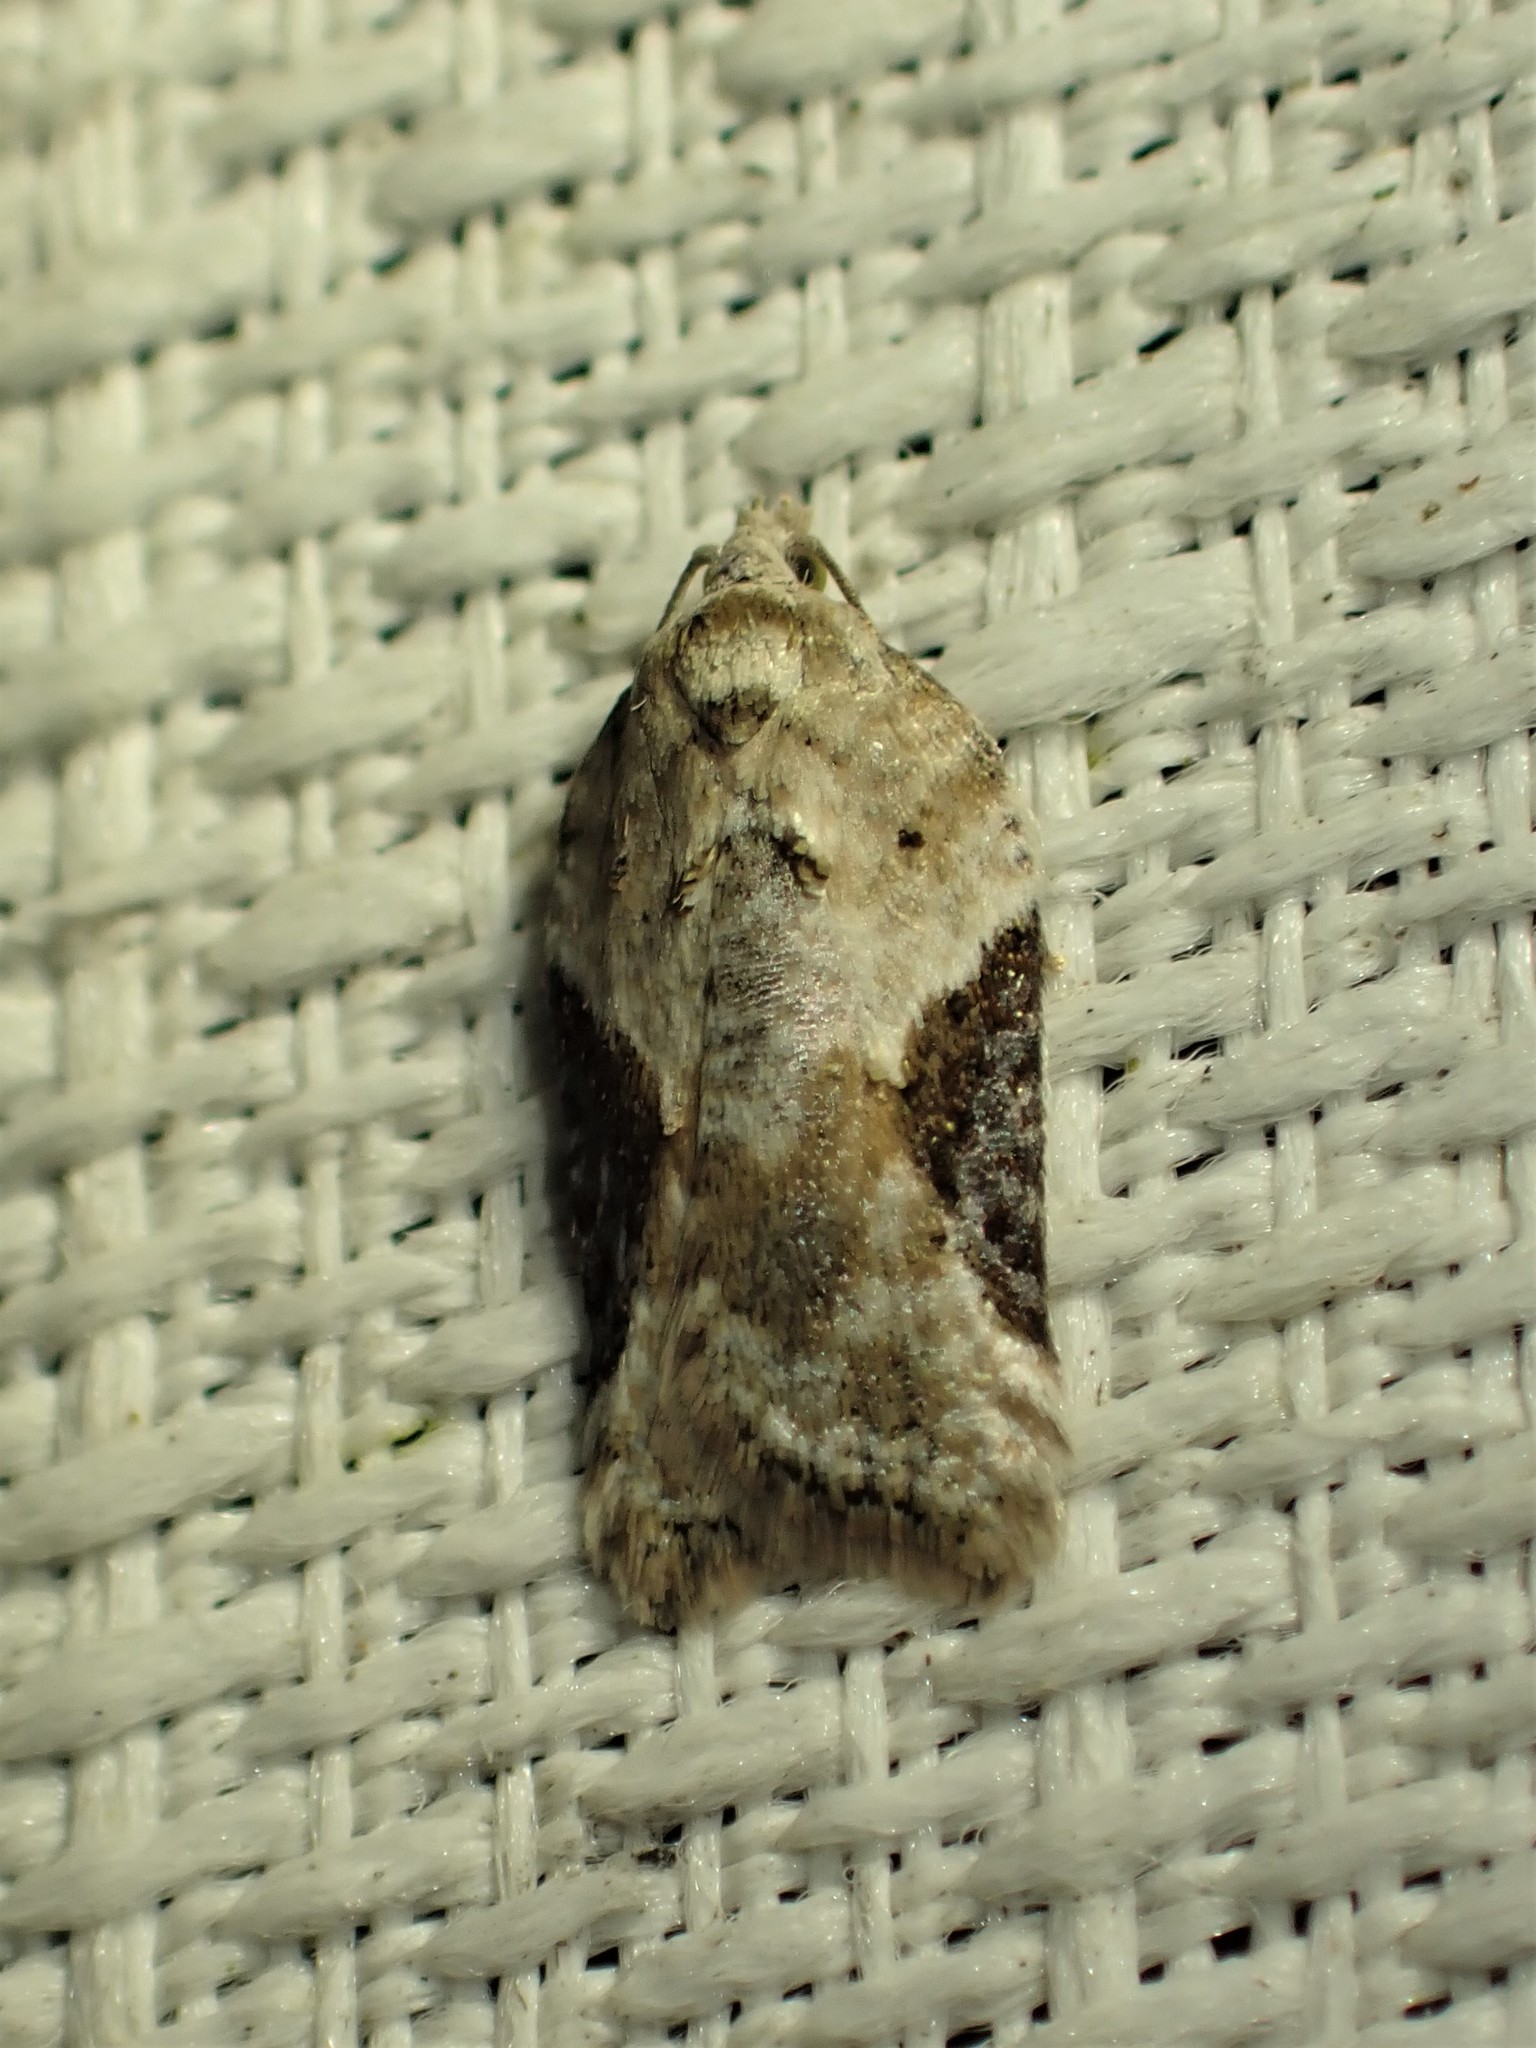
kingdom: Animalia
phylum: Arthropoda
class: Insecta
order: Lepidoptera
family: Tortricidae
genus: Acleris
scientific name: Acleris forbesana
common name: Forbes' acleris moth
